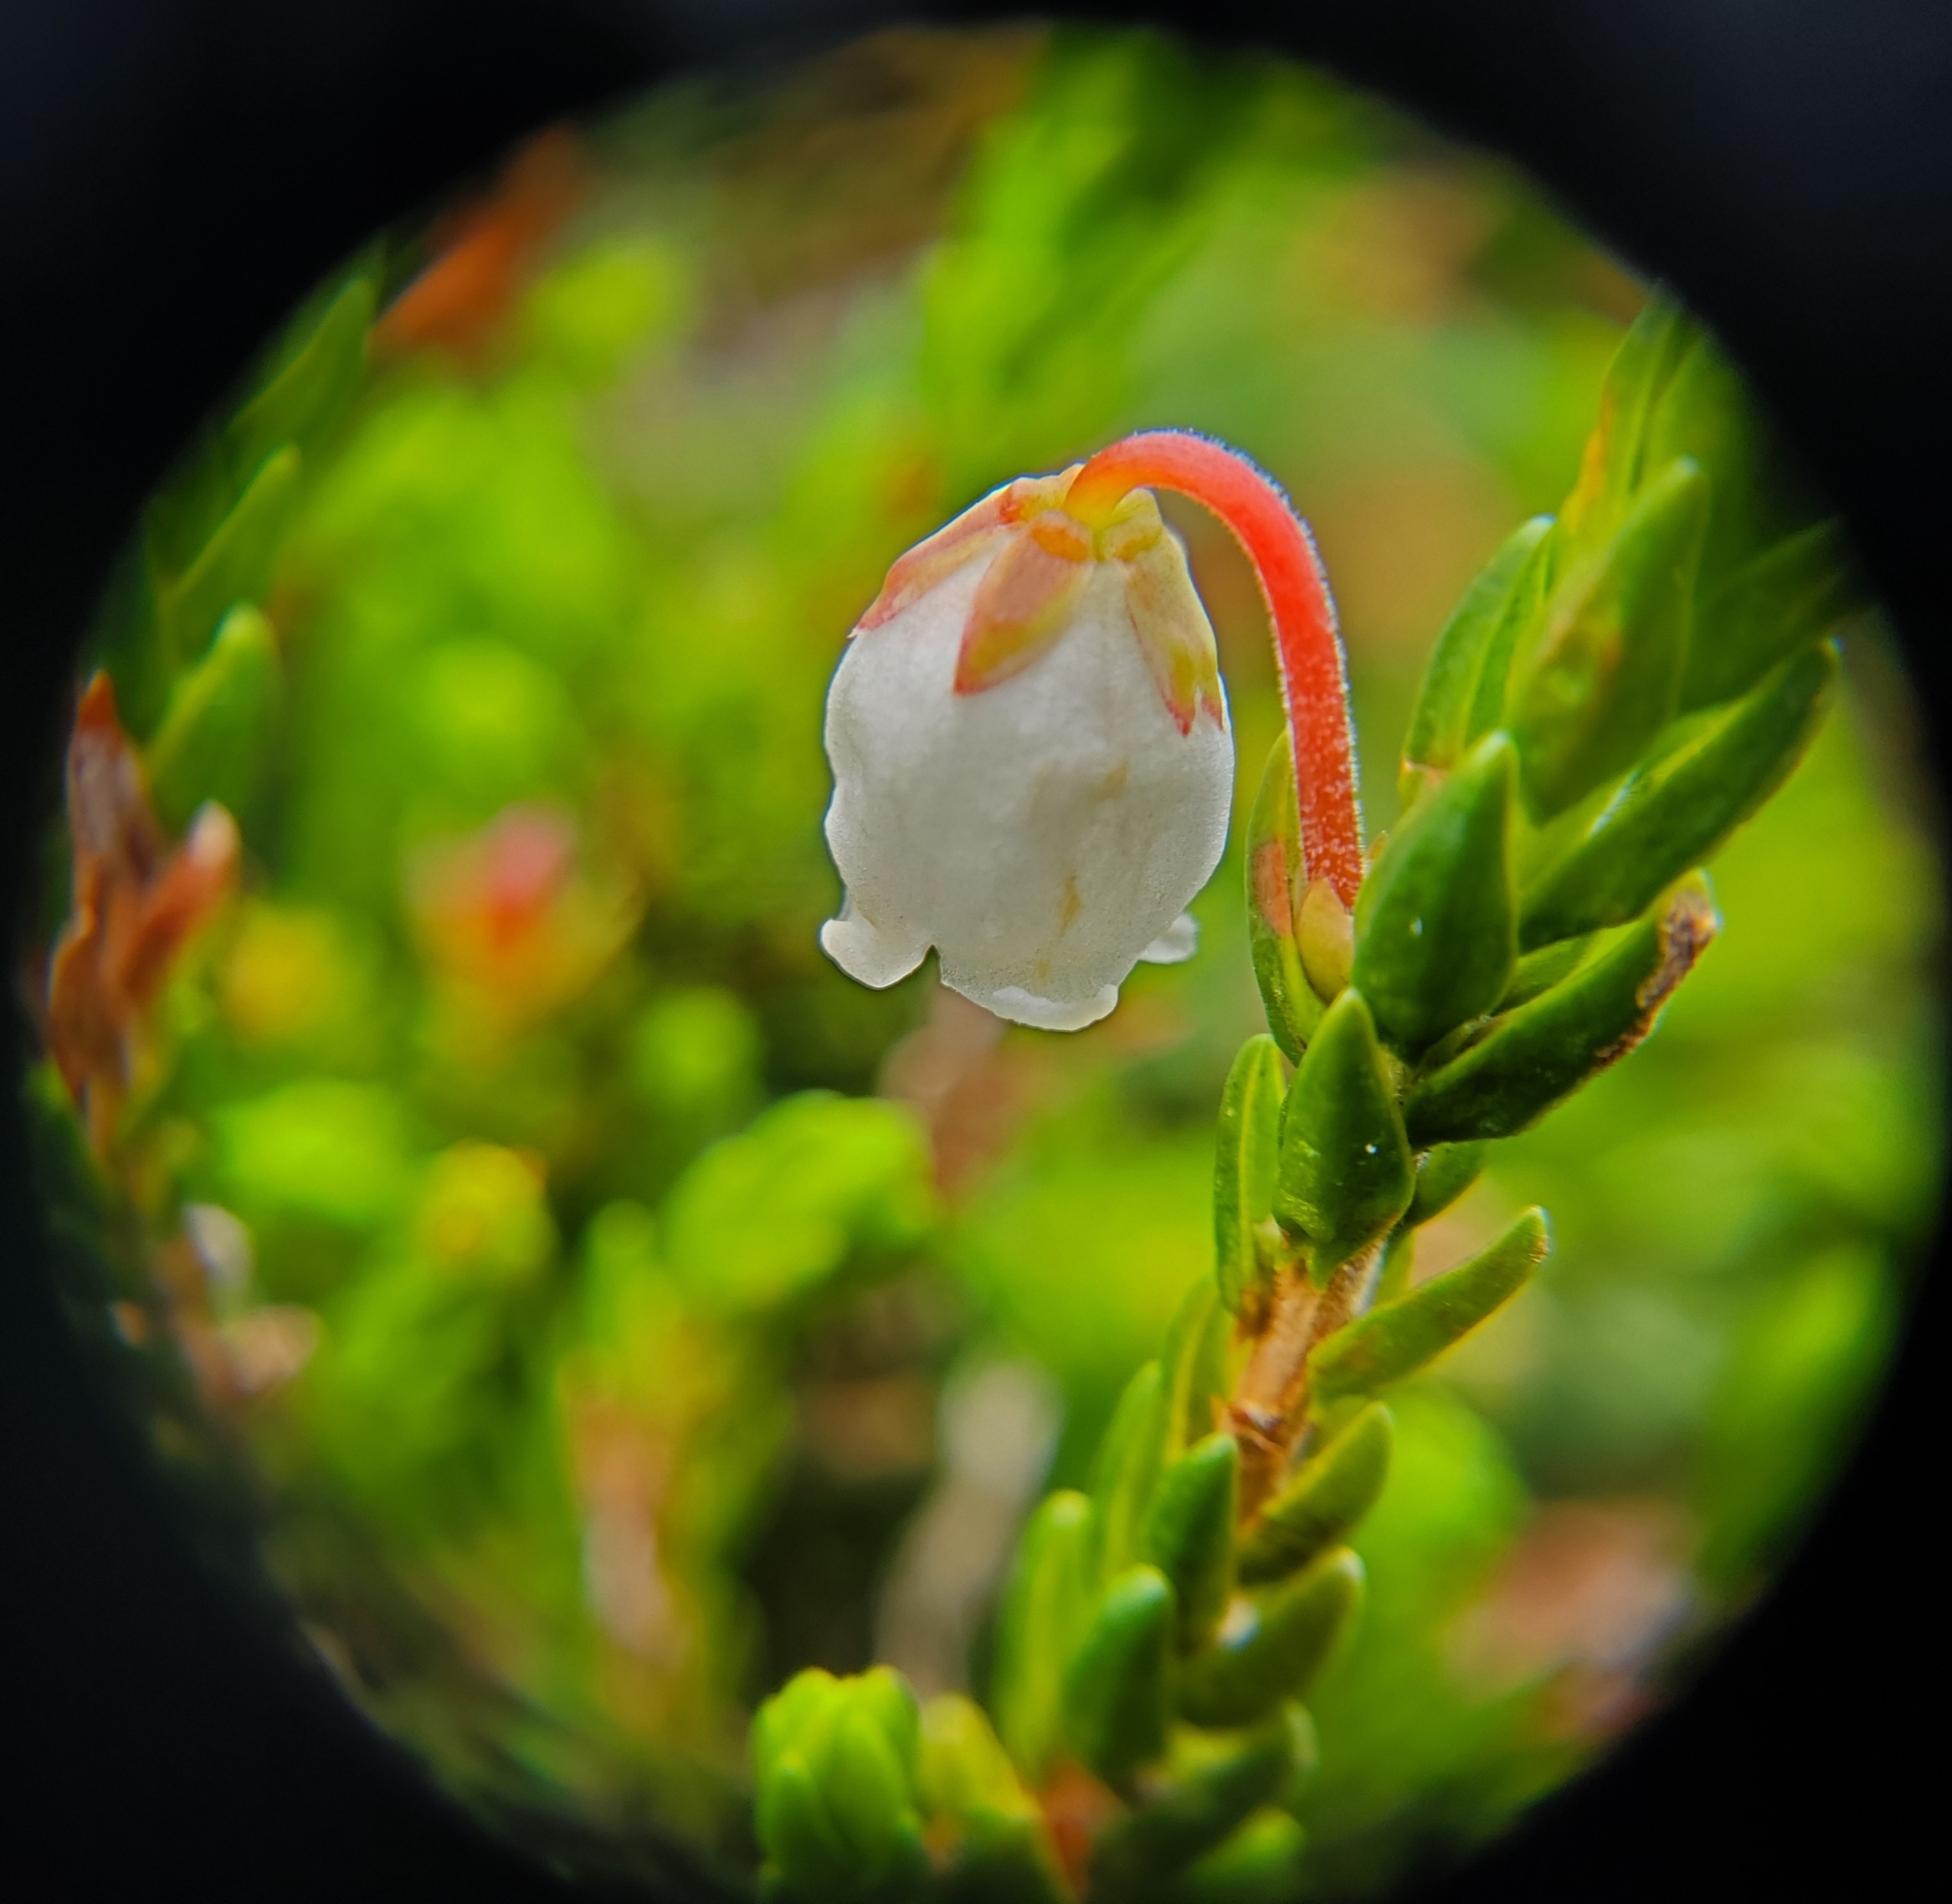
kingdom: Plantae
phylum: Tracheophyta
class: Magnoliopsida
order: Ericales
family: Ericaceae
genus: Cassiope
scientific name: Cassiope mertensiana
